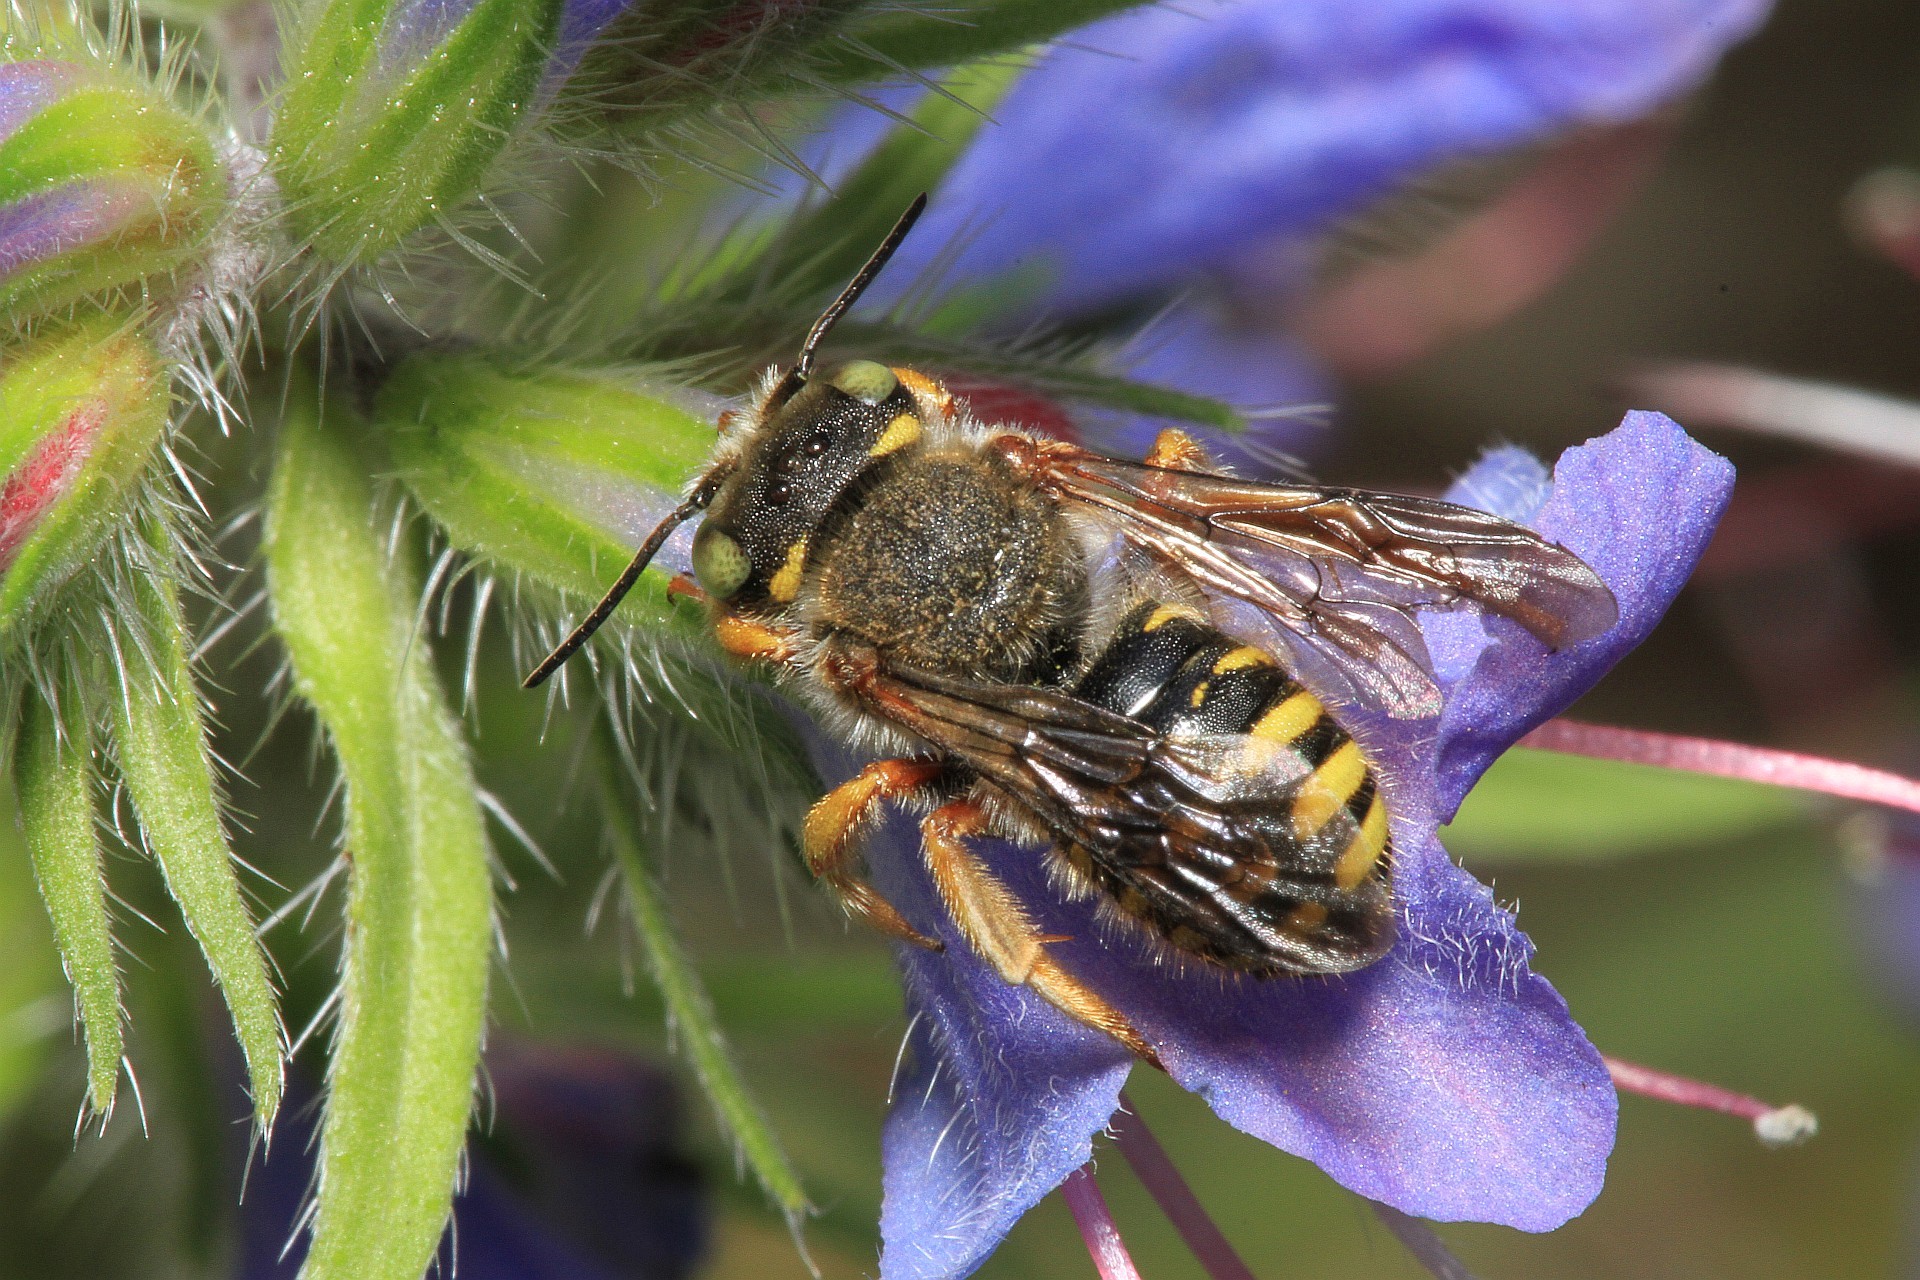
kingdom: Animalia
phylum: Arthropoda
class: Insecta
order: Hymenoptera
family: Megachilidae
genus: Anthidium
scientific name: Anthidium oblongatum
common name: Oblong wool carder bee
